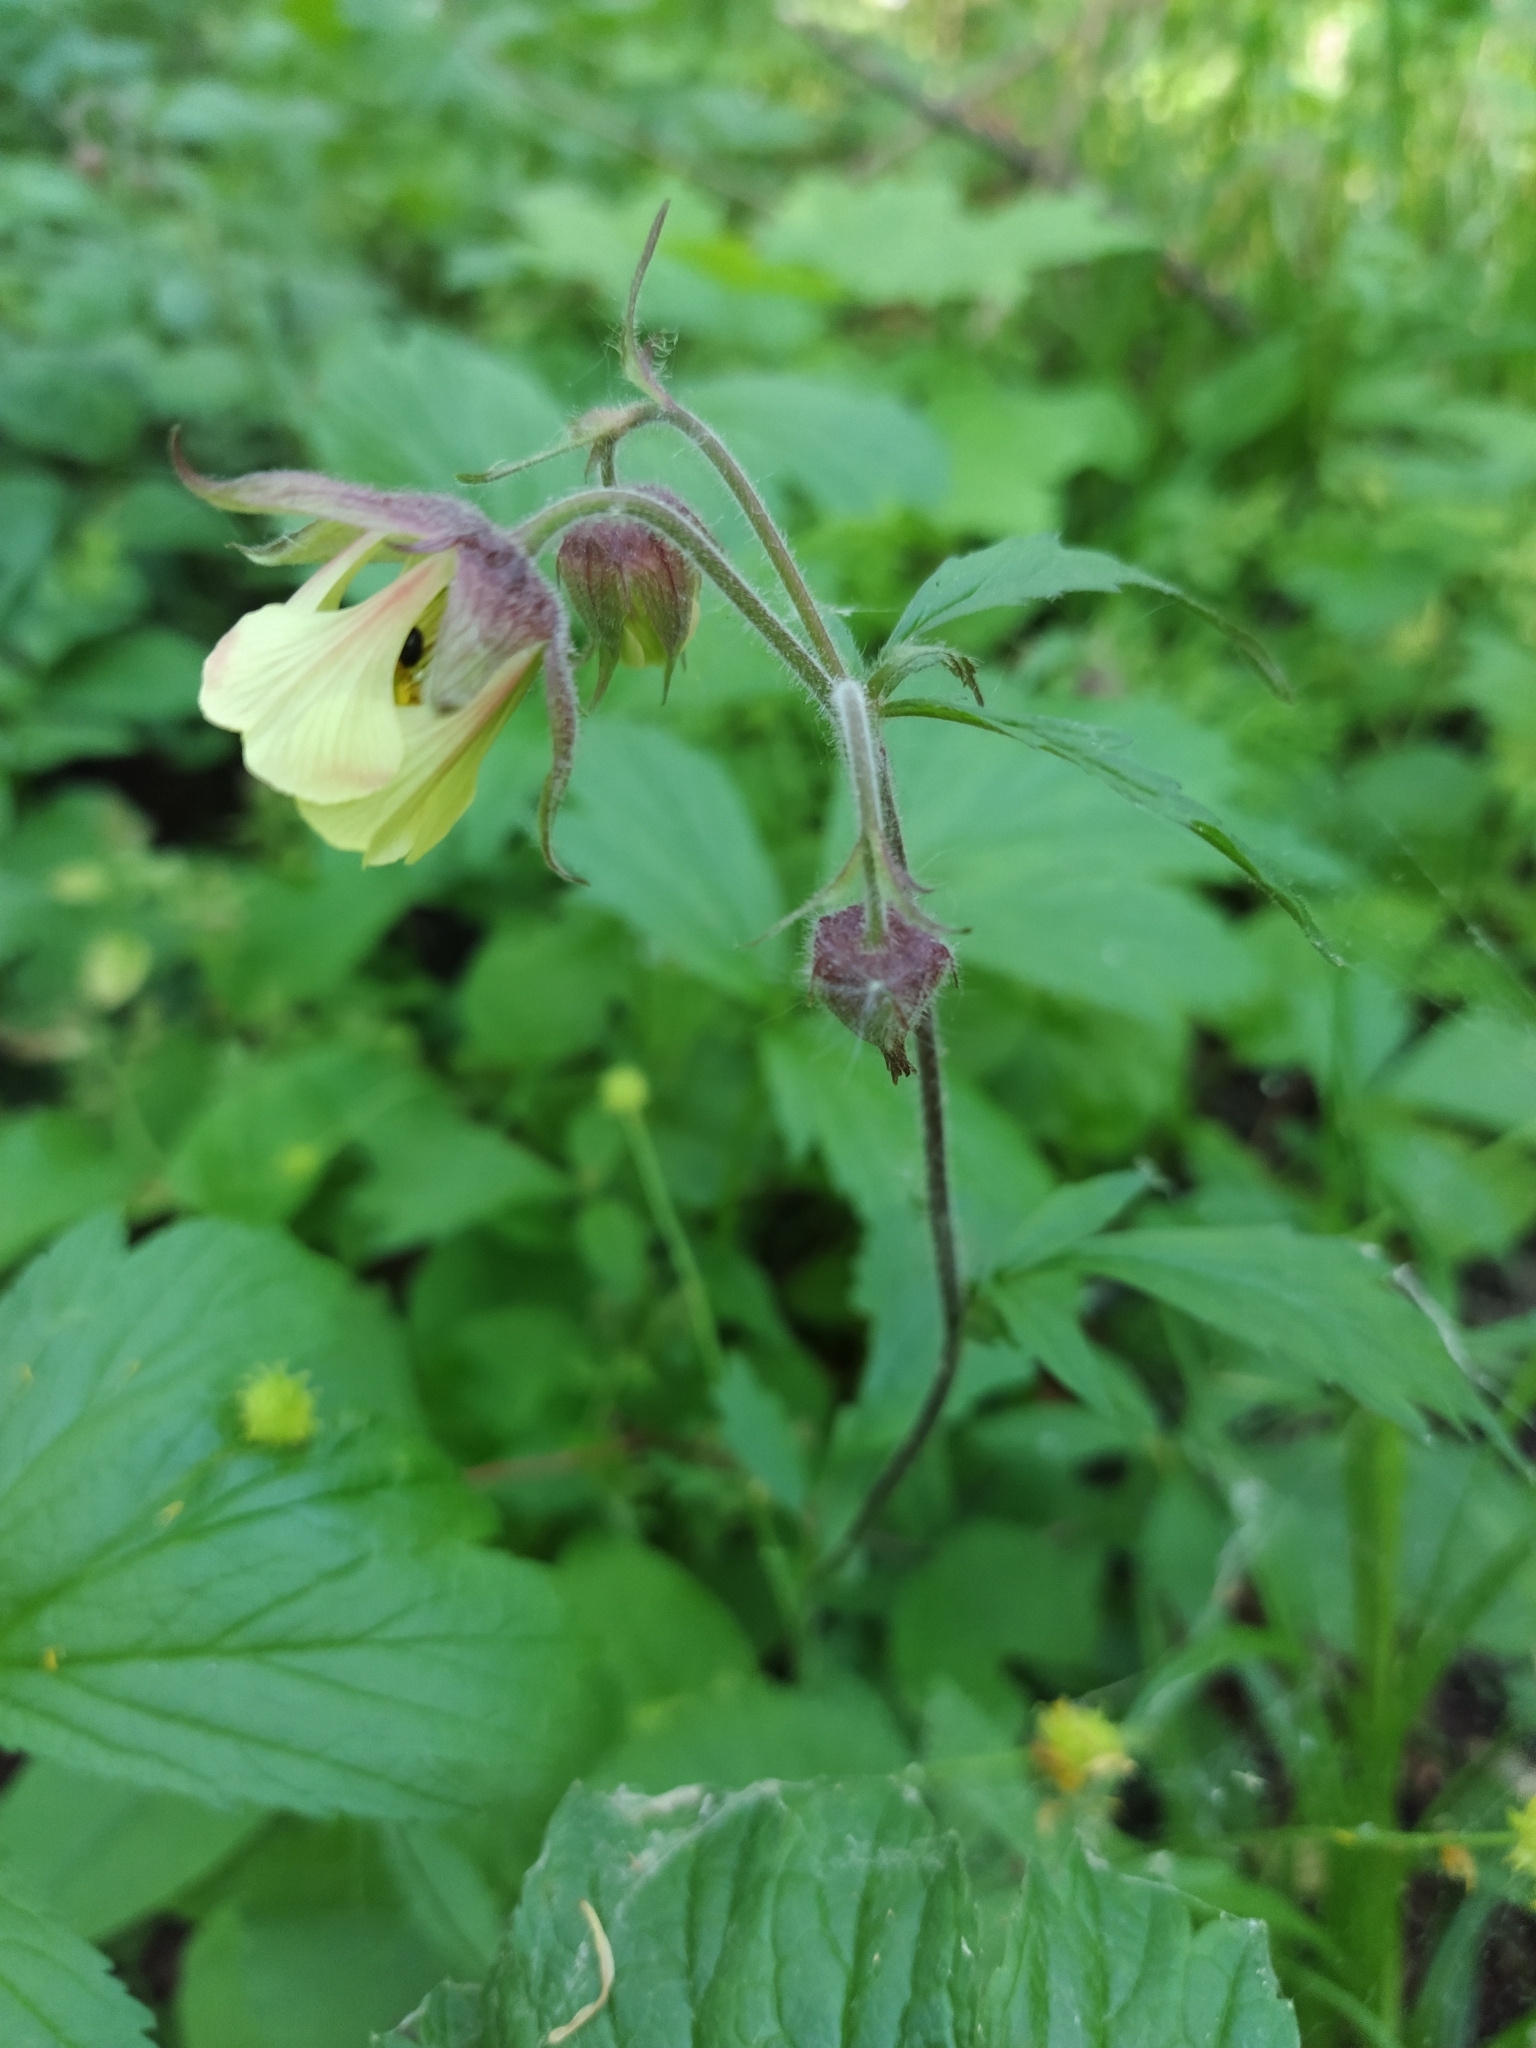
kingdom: Plantae
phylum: Tracheophyta
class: Magnoliopsida
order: Rosales
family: Rosaceae
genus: Geum
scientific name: Geum rivale
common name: Water avens
